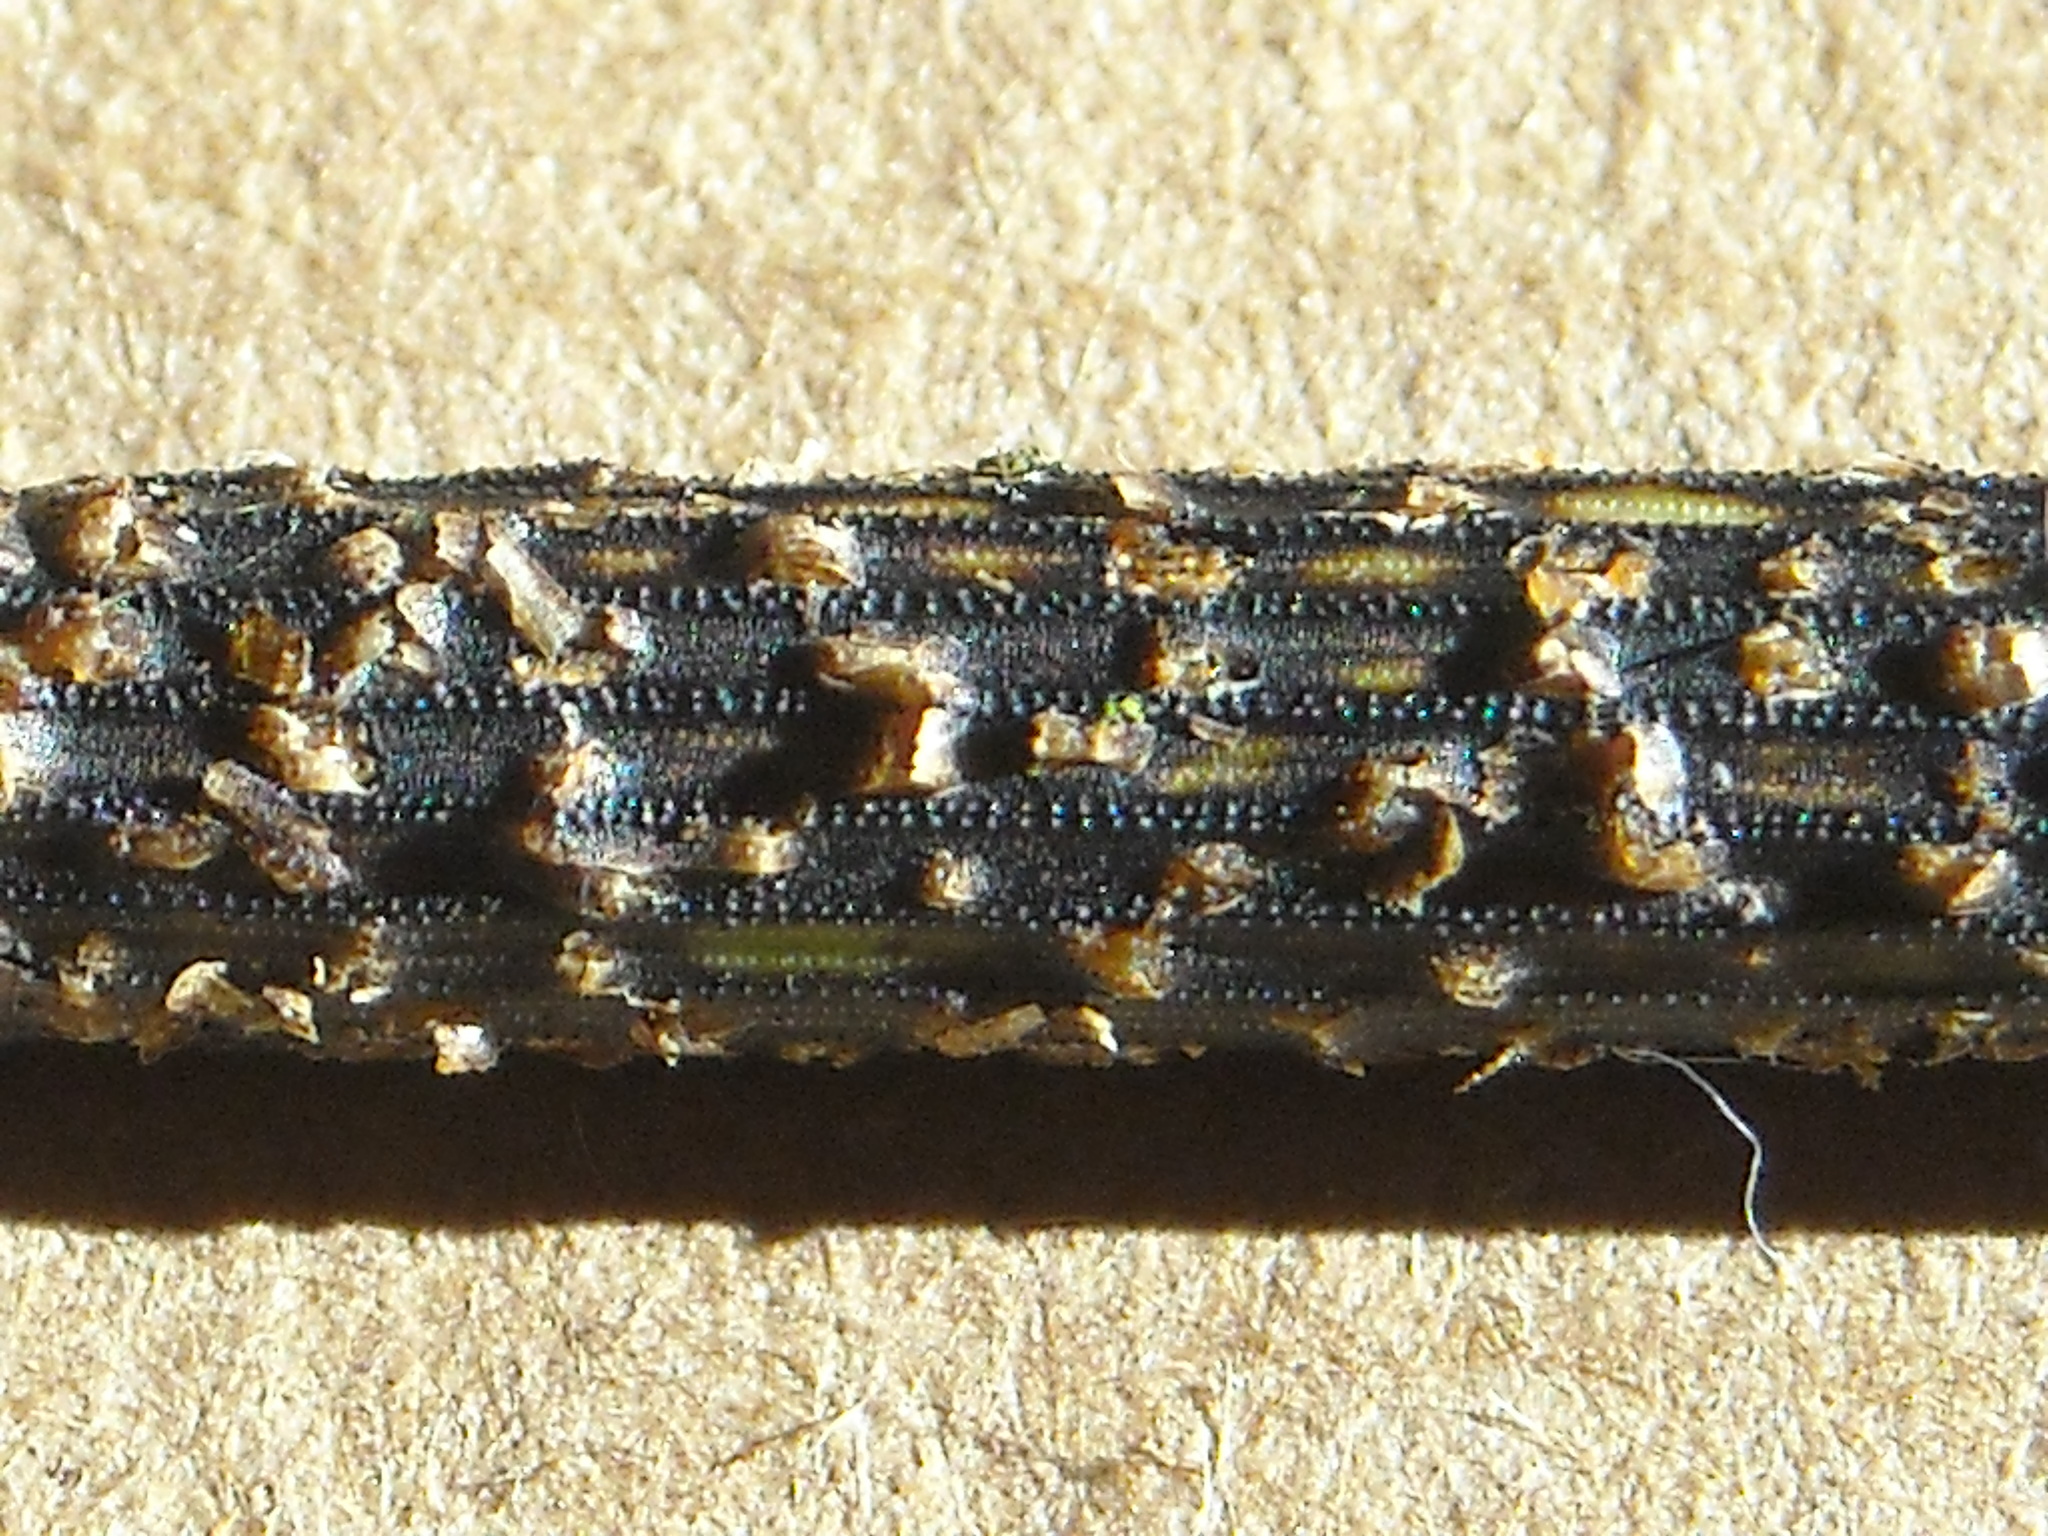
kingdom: Fungi
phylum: Ascomycota
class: Leotiomycetes
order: Helotiales
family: Helotiaceae
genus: Stamnaria
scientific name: Stamnaria americana
